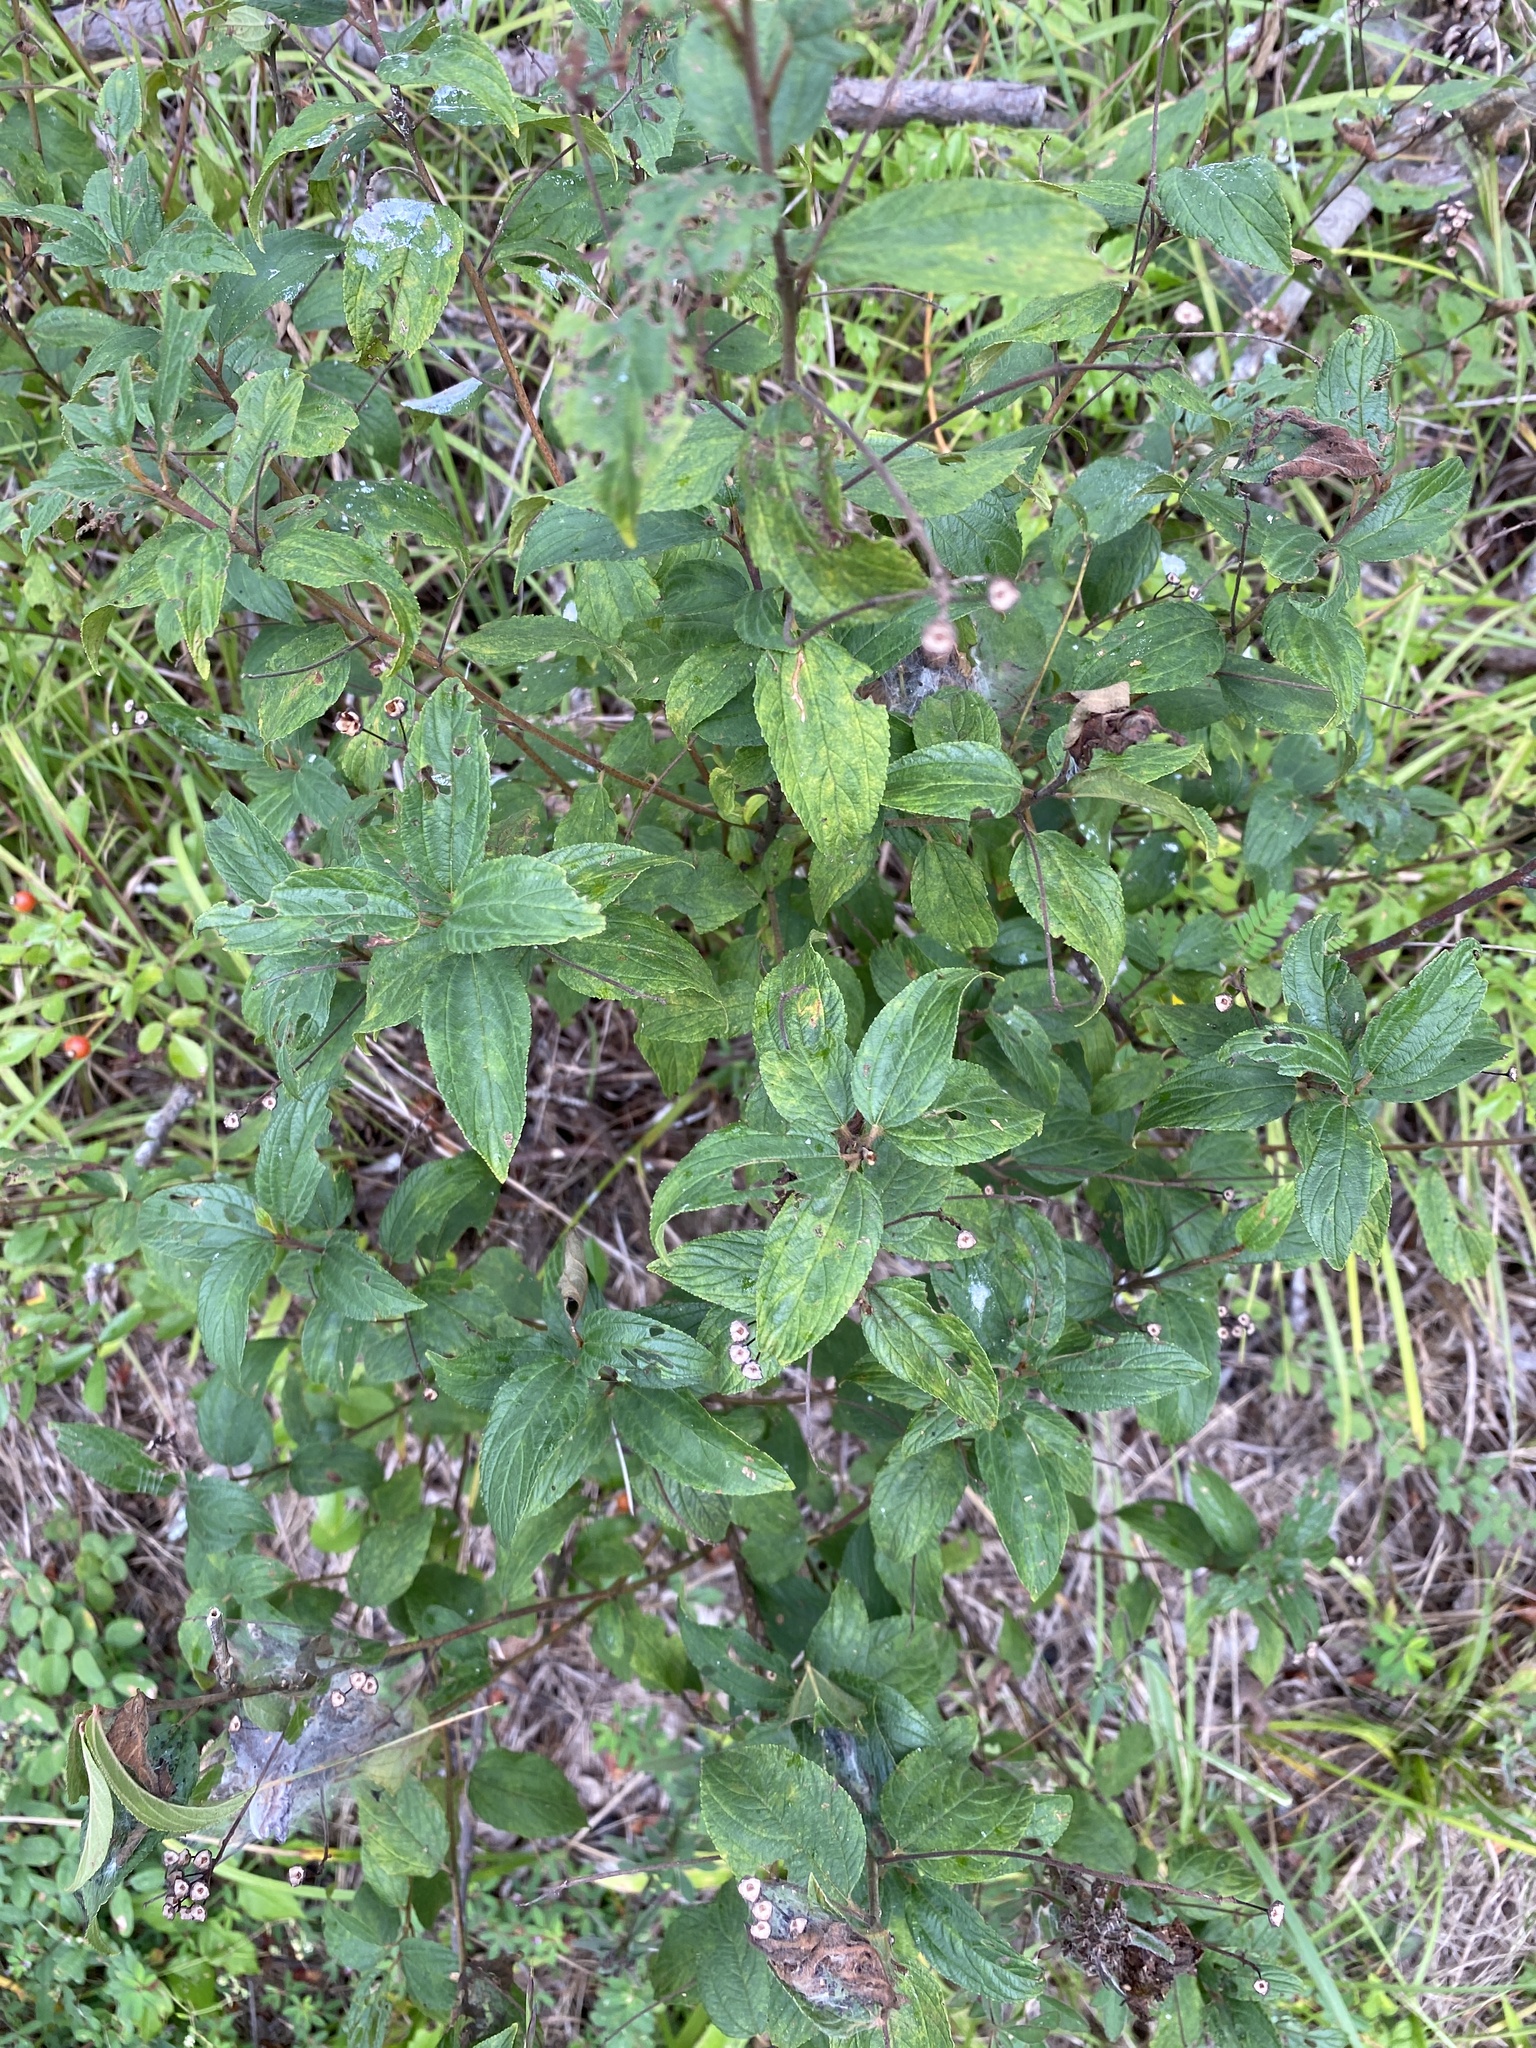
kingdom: Plantae
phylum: Tracheophyta
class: Magnoliopsida
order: Rosales
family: Rhamnaceae
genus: Ceanothus
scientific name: Ceanothus americanus
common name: Redroot
